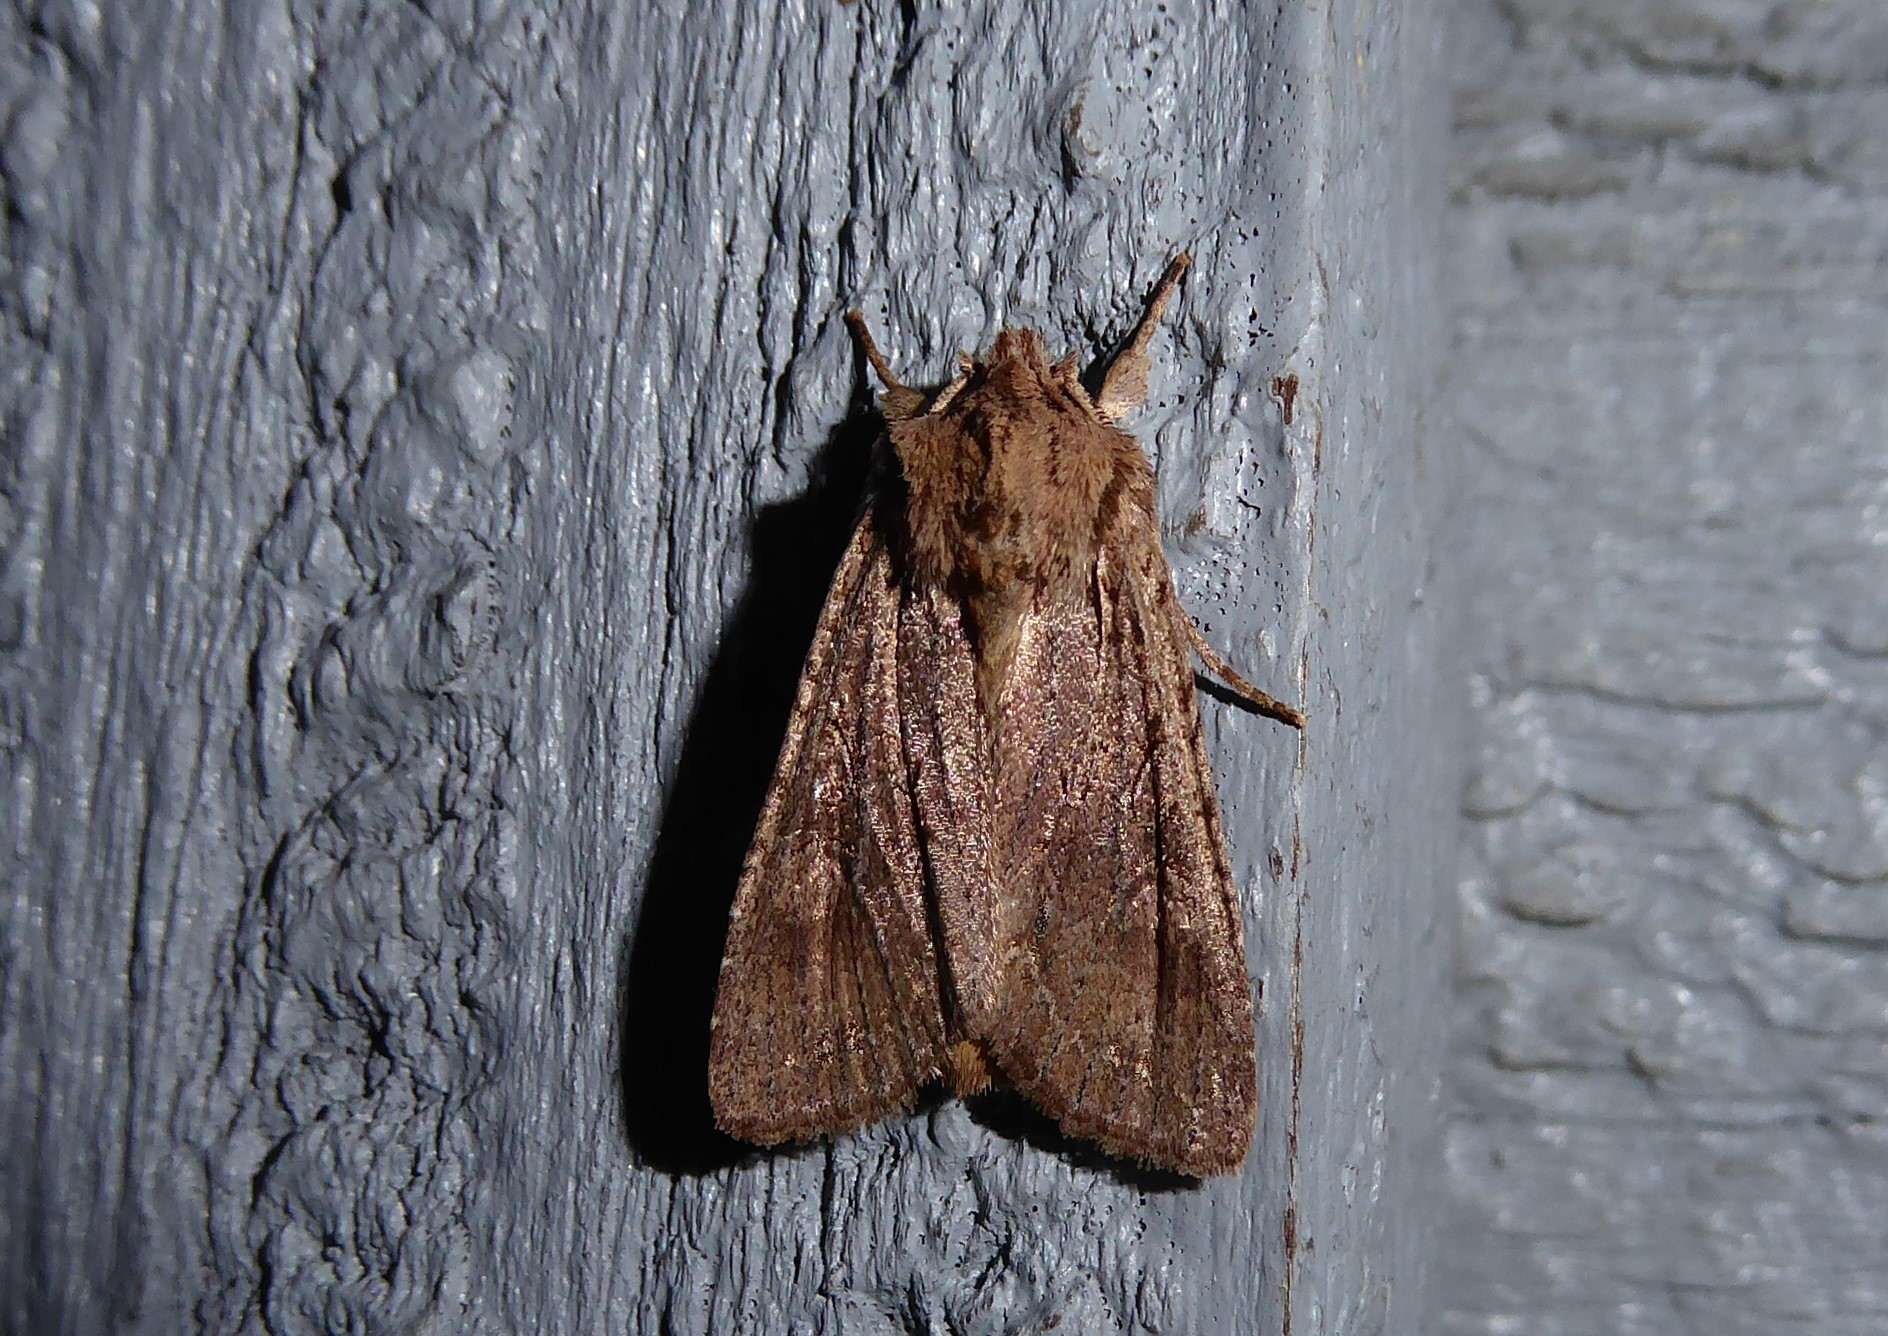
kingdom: Animalia
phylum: Arthropoda
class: Insecta
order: Lepidoptera
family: Noctuidae
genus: Ichneutica
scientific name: Ichneutica
